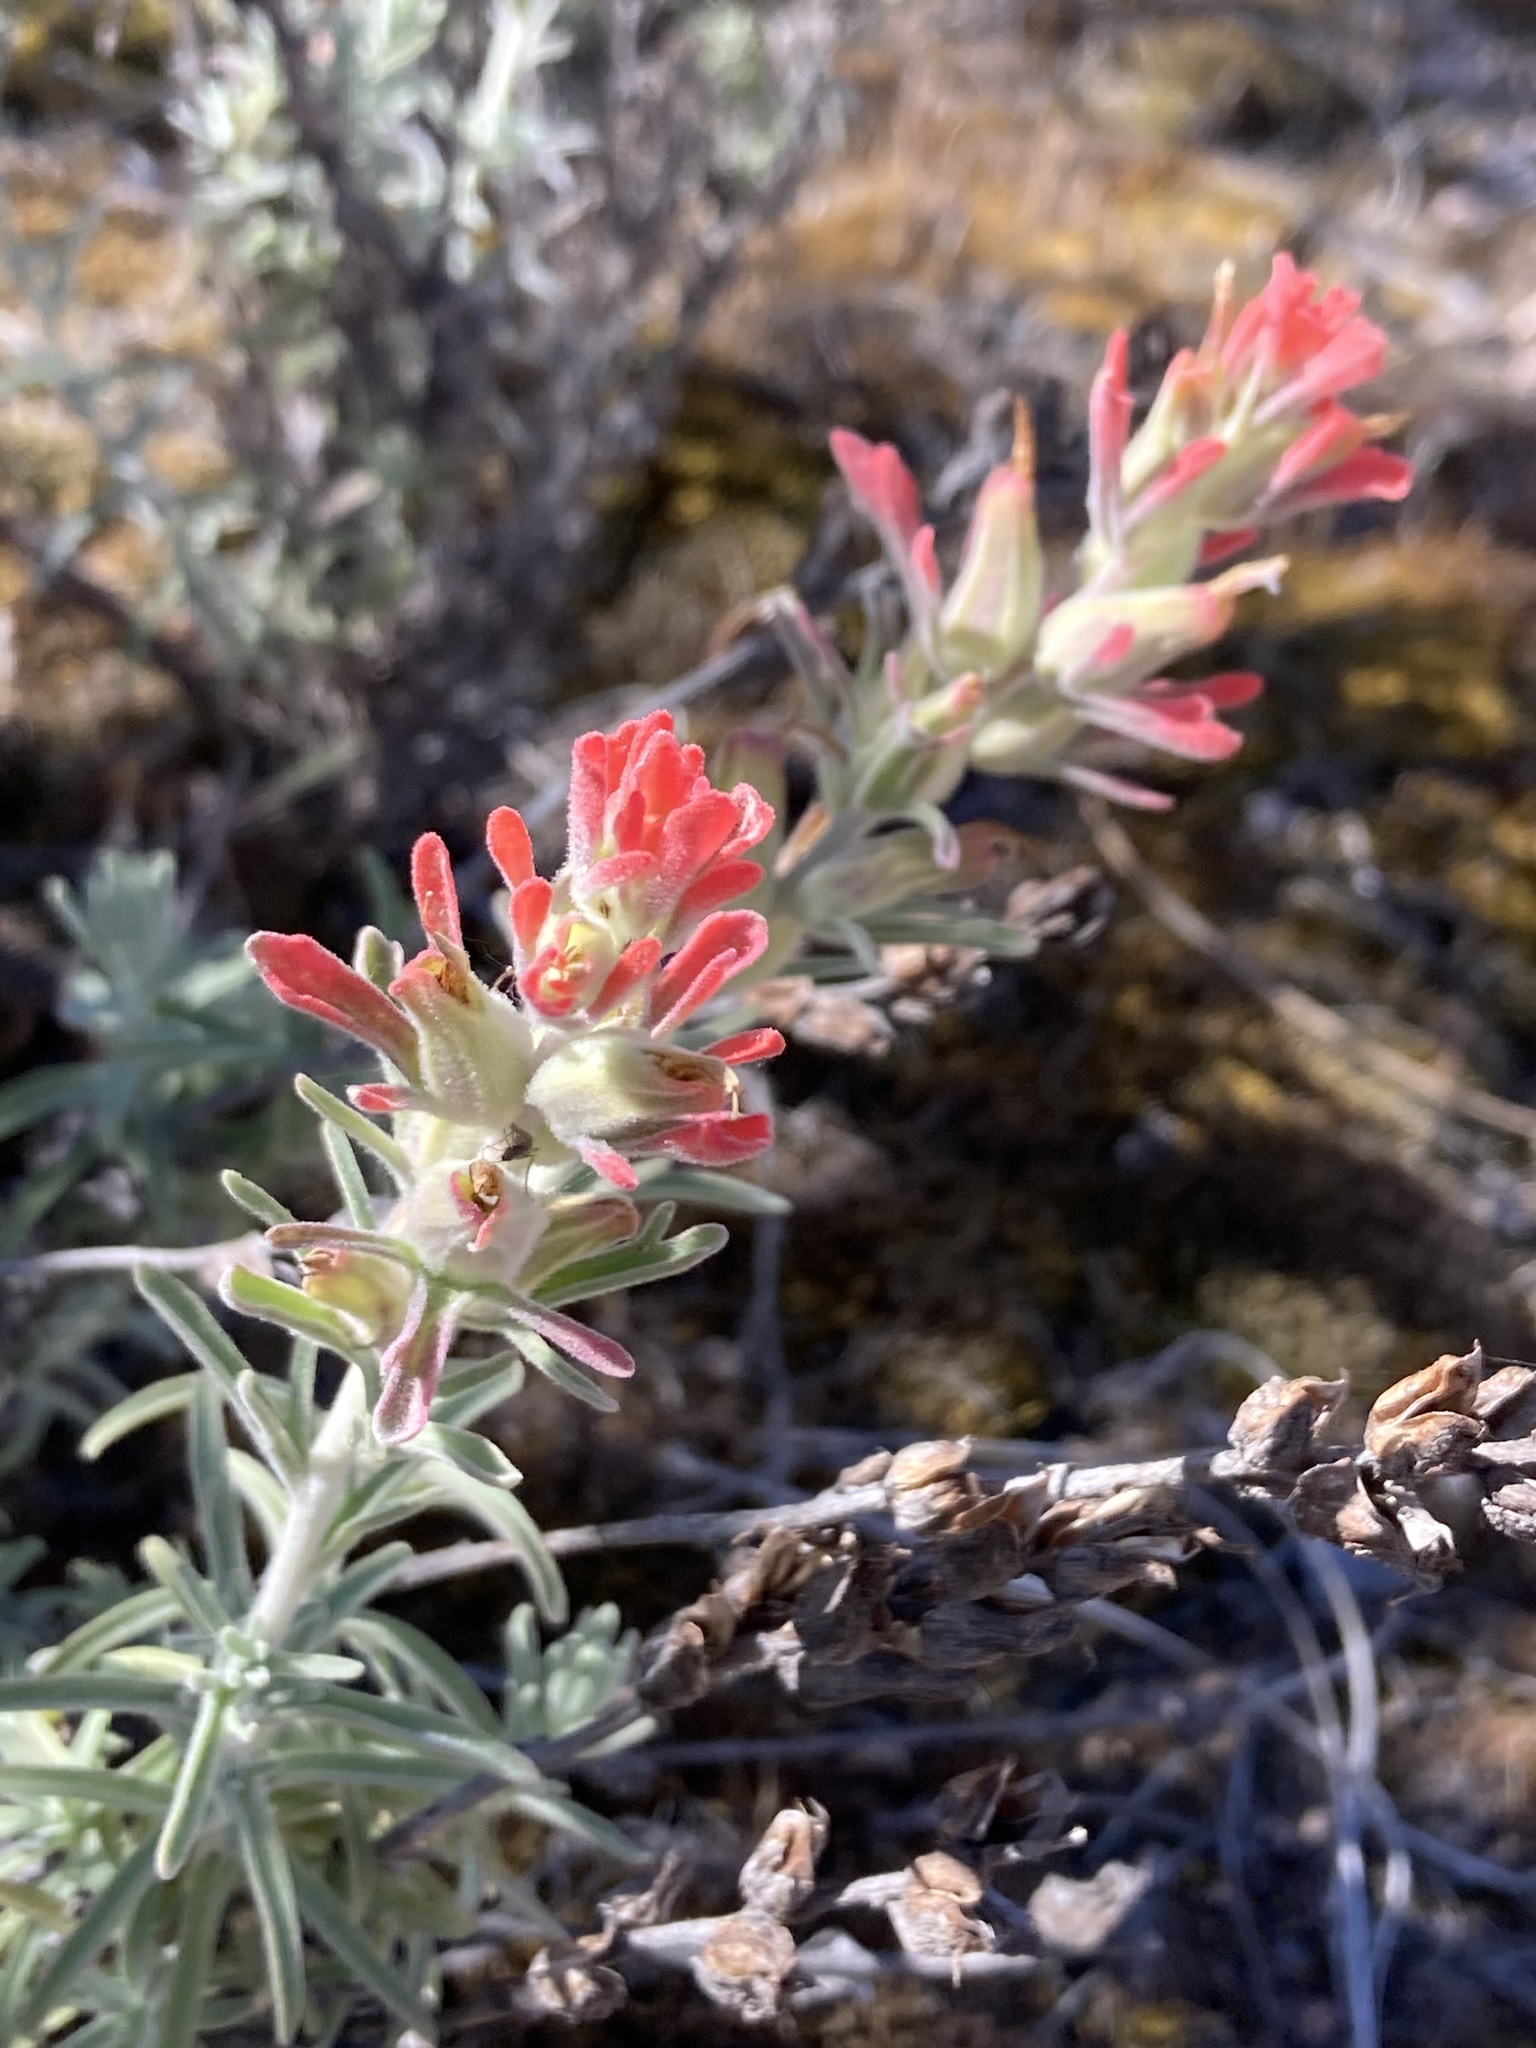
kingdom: Plantae
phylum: Tracheophyta
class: Magnoliopsida
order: Lamiales
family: Orobanchaceae
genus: Castilleja
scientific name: Castilleja foliolosa
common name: Woolly indian paintbrush
